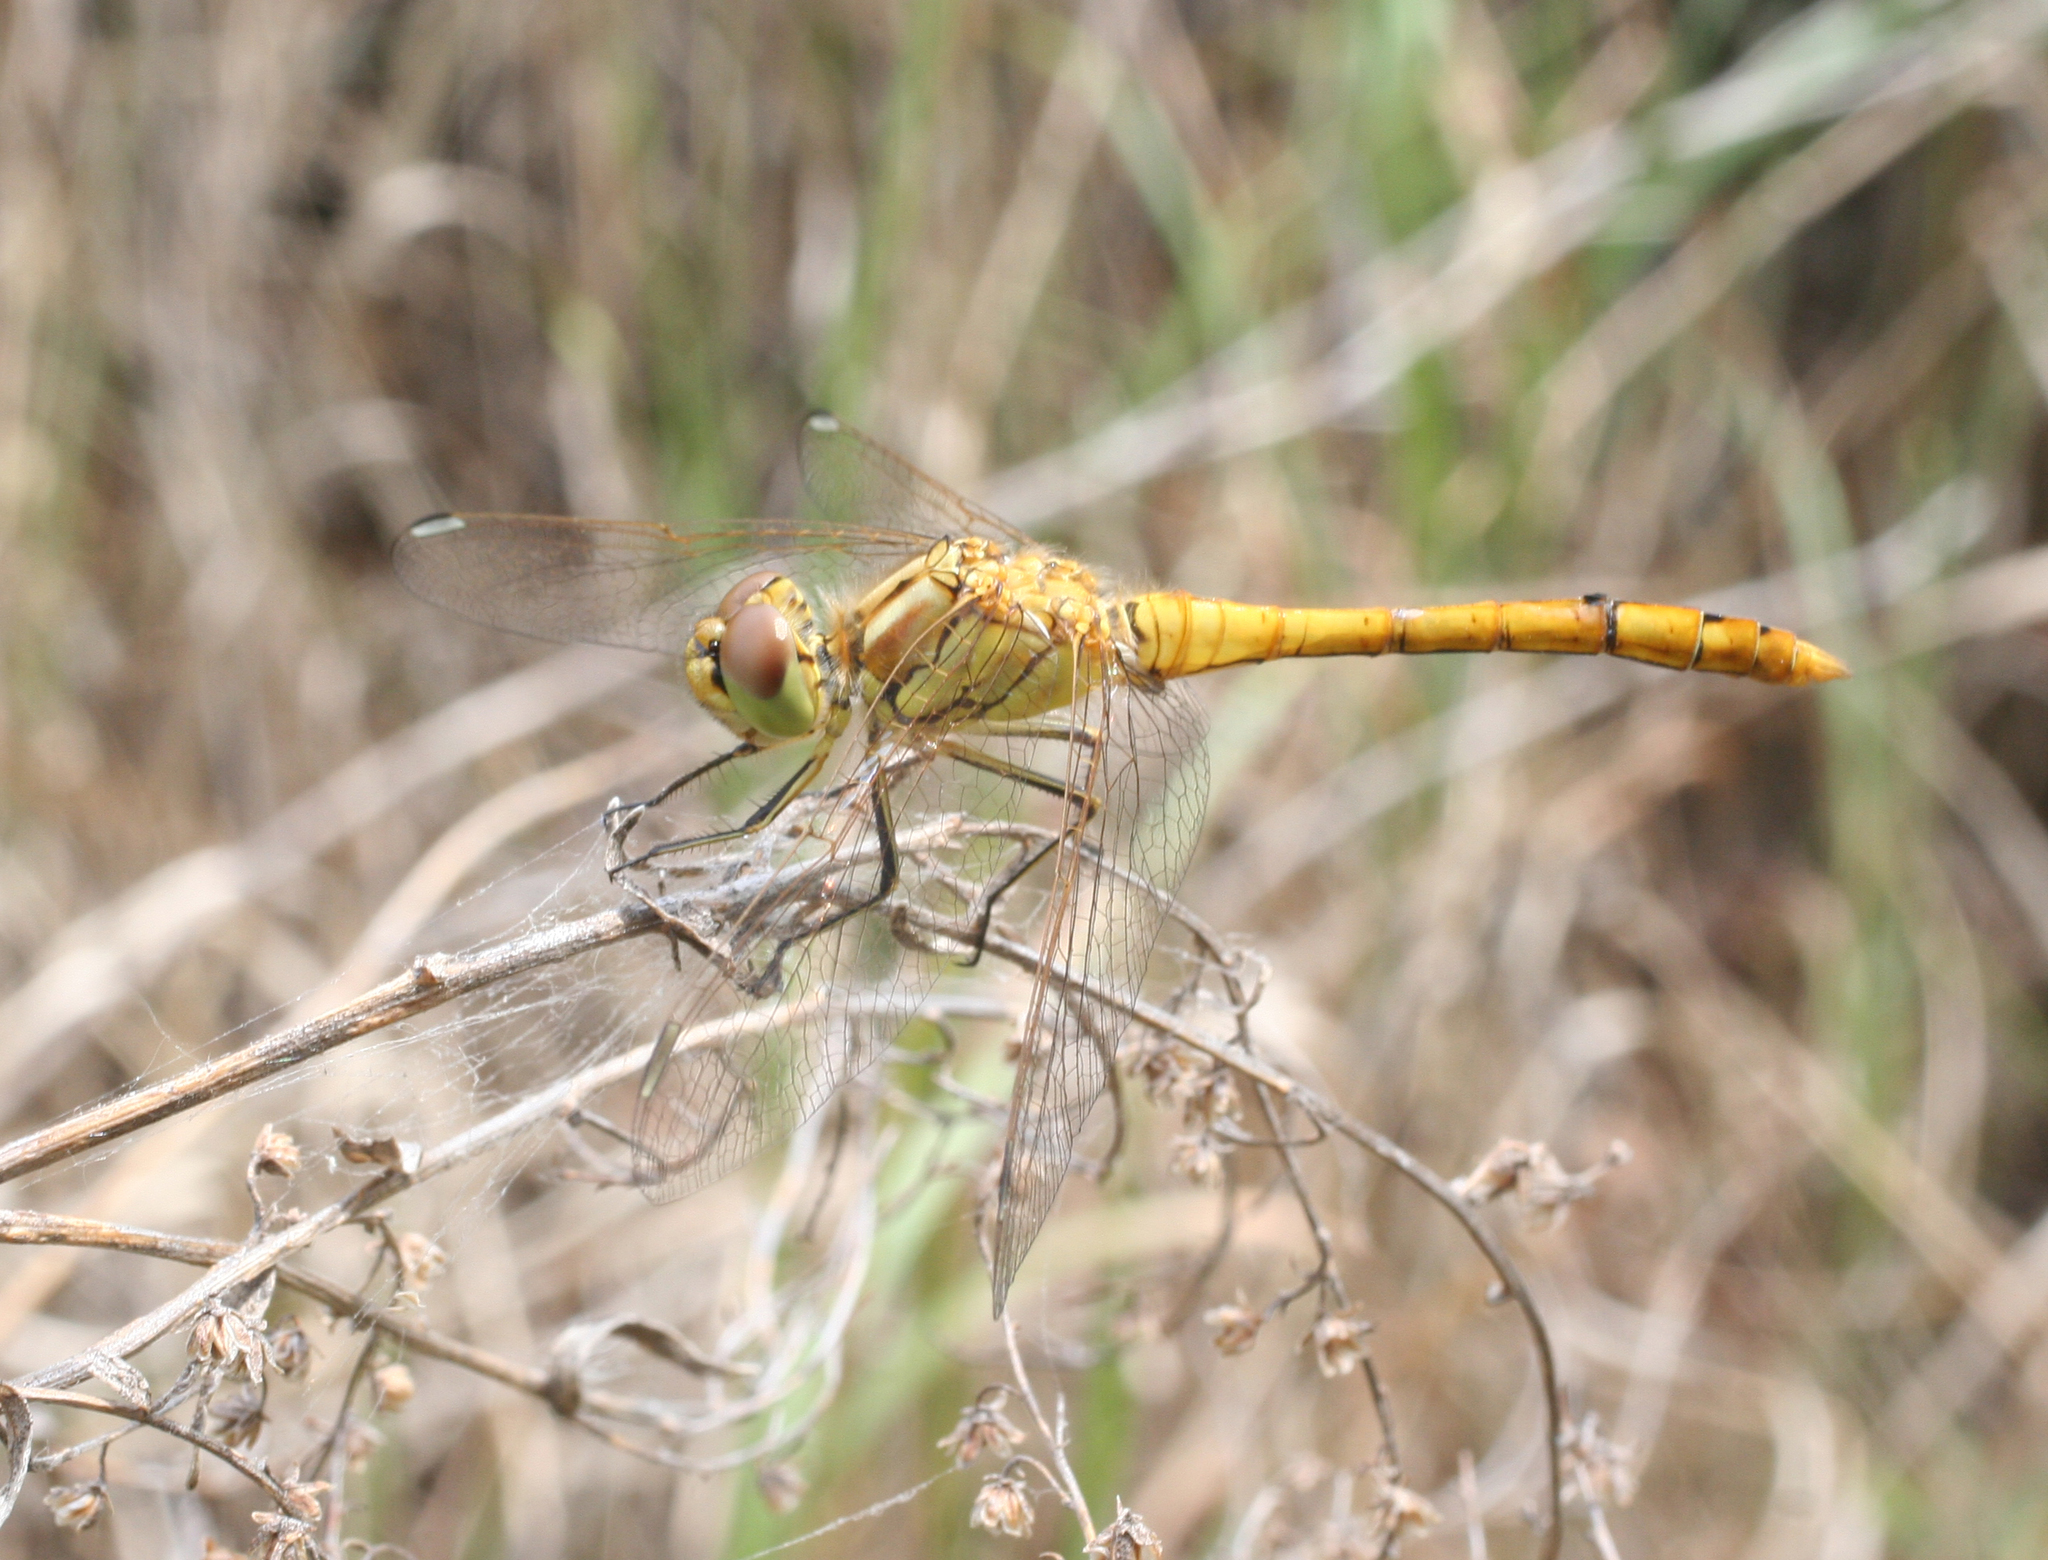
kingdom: Animalia
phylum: Arthropoda
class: Insecta
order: Odonata
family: Libellulidae
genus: Sympetrum
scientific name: Sympetrum vulgatum
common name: Vagrant darter
